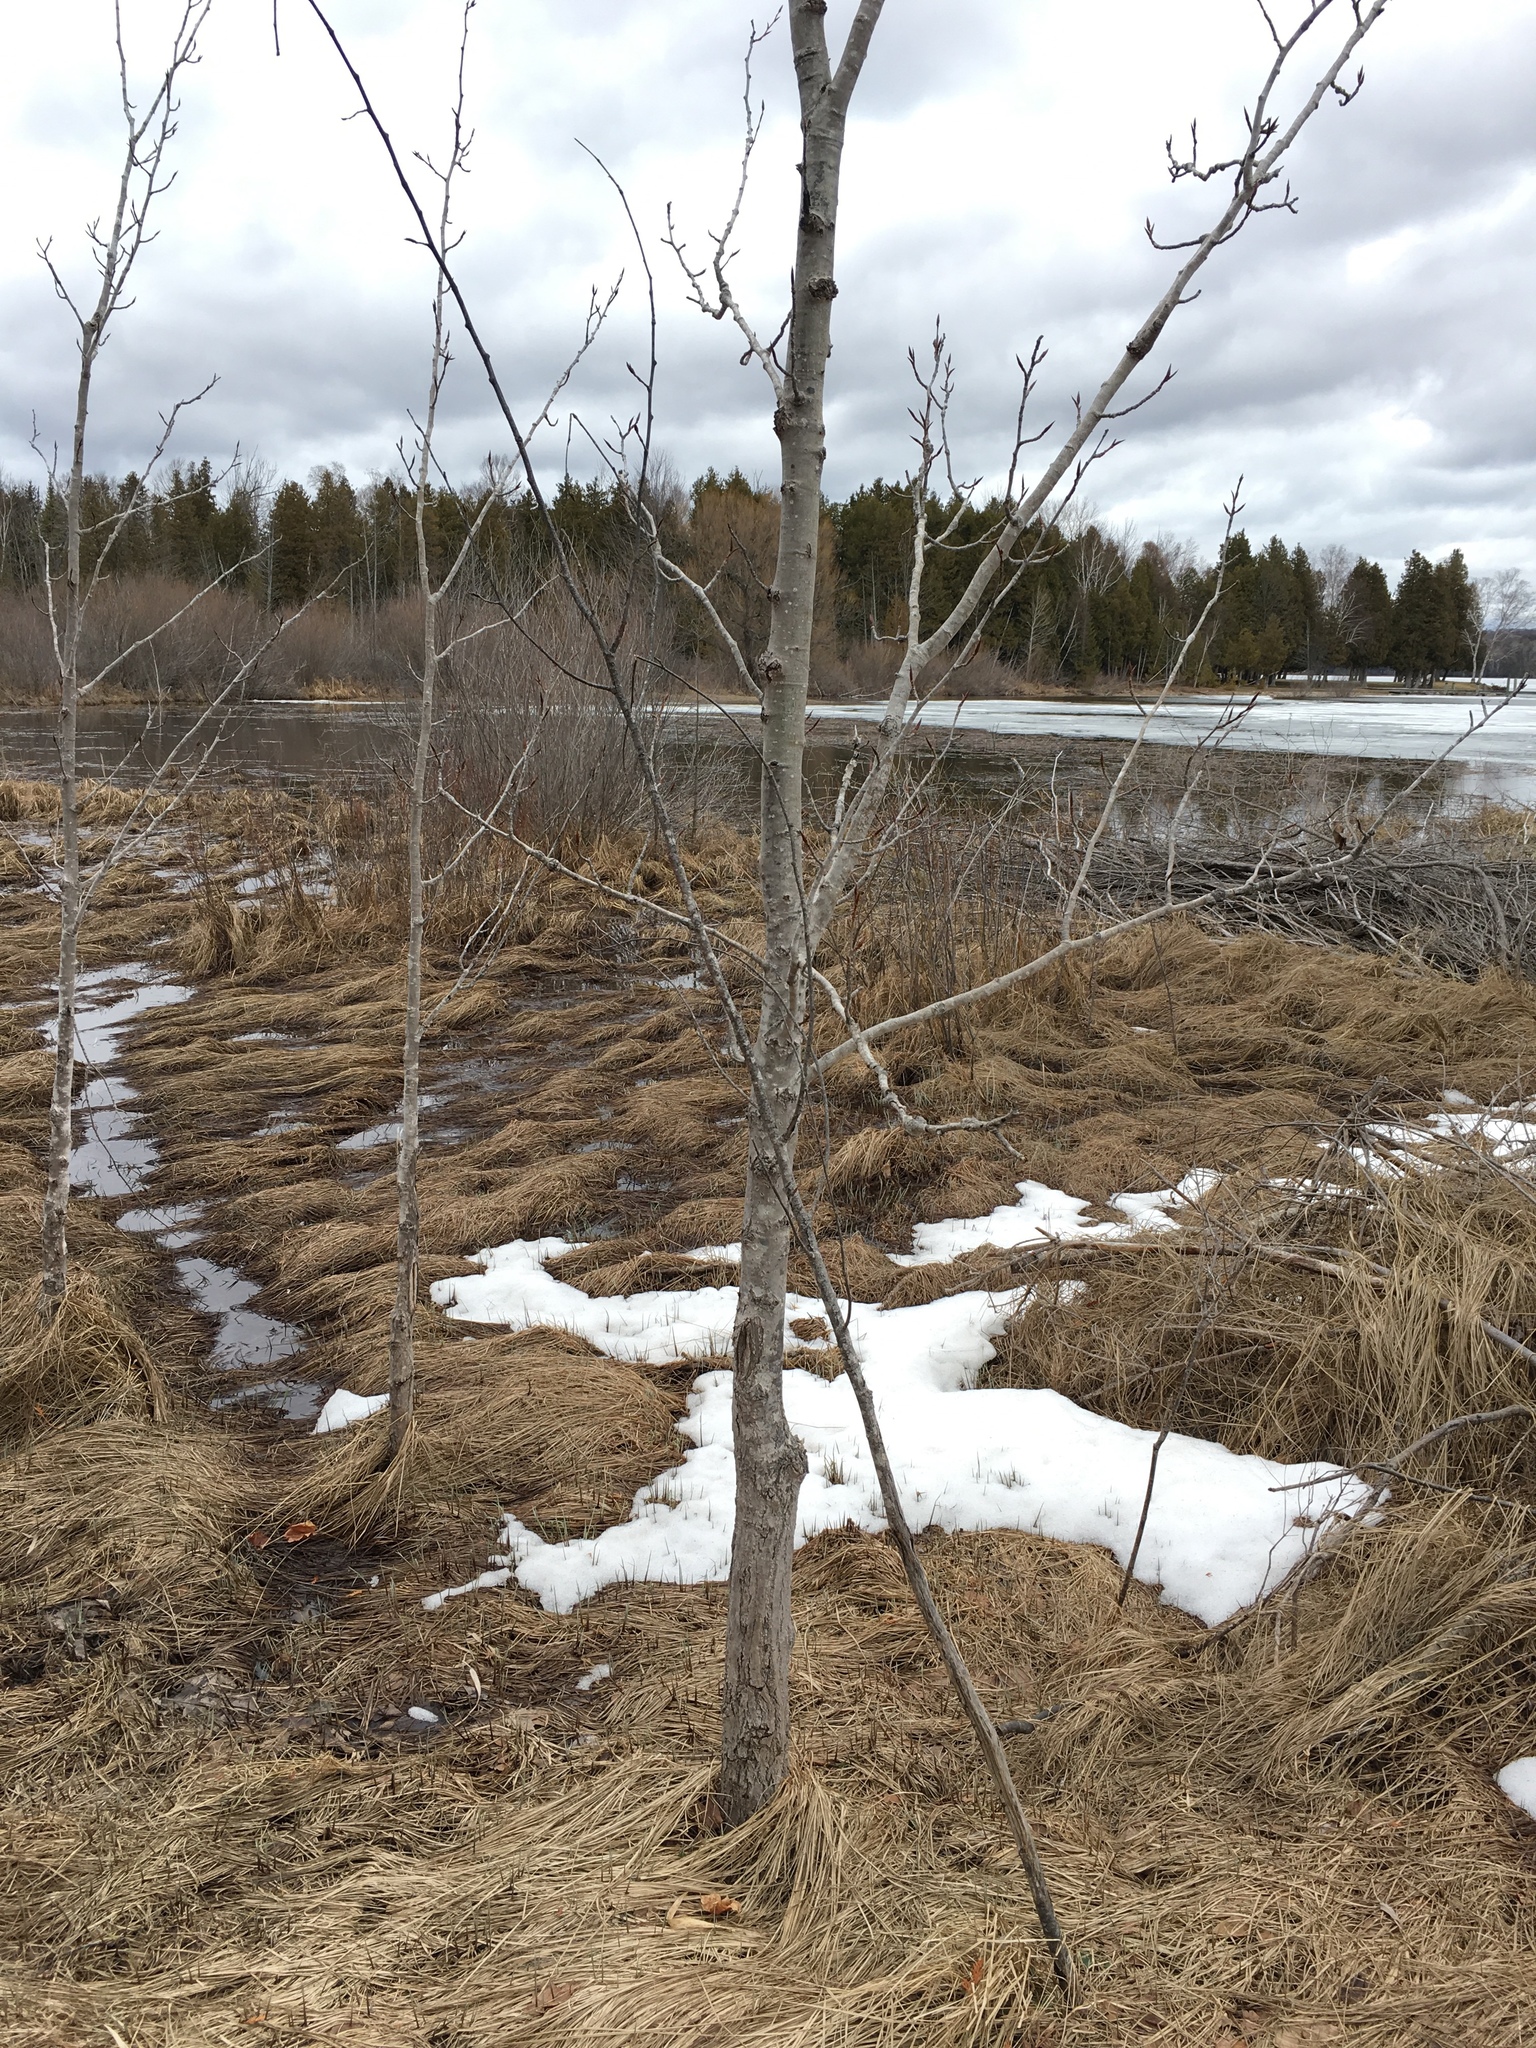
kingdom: Plantae
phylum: Tracheophyta
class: Magnoliopsida
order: Malpighiales
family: Salicaceae
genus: Populus
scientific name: Populus balsamifera
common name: Balsam poplar
